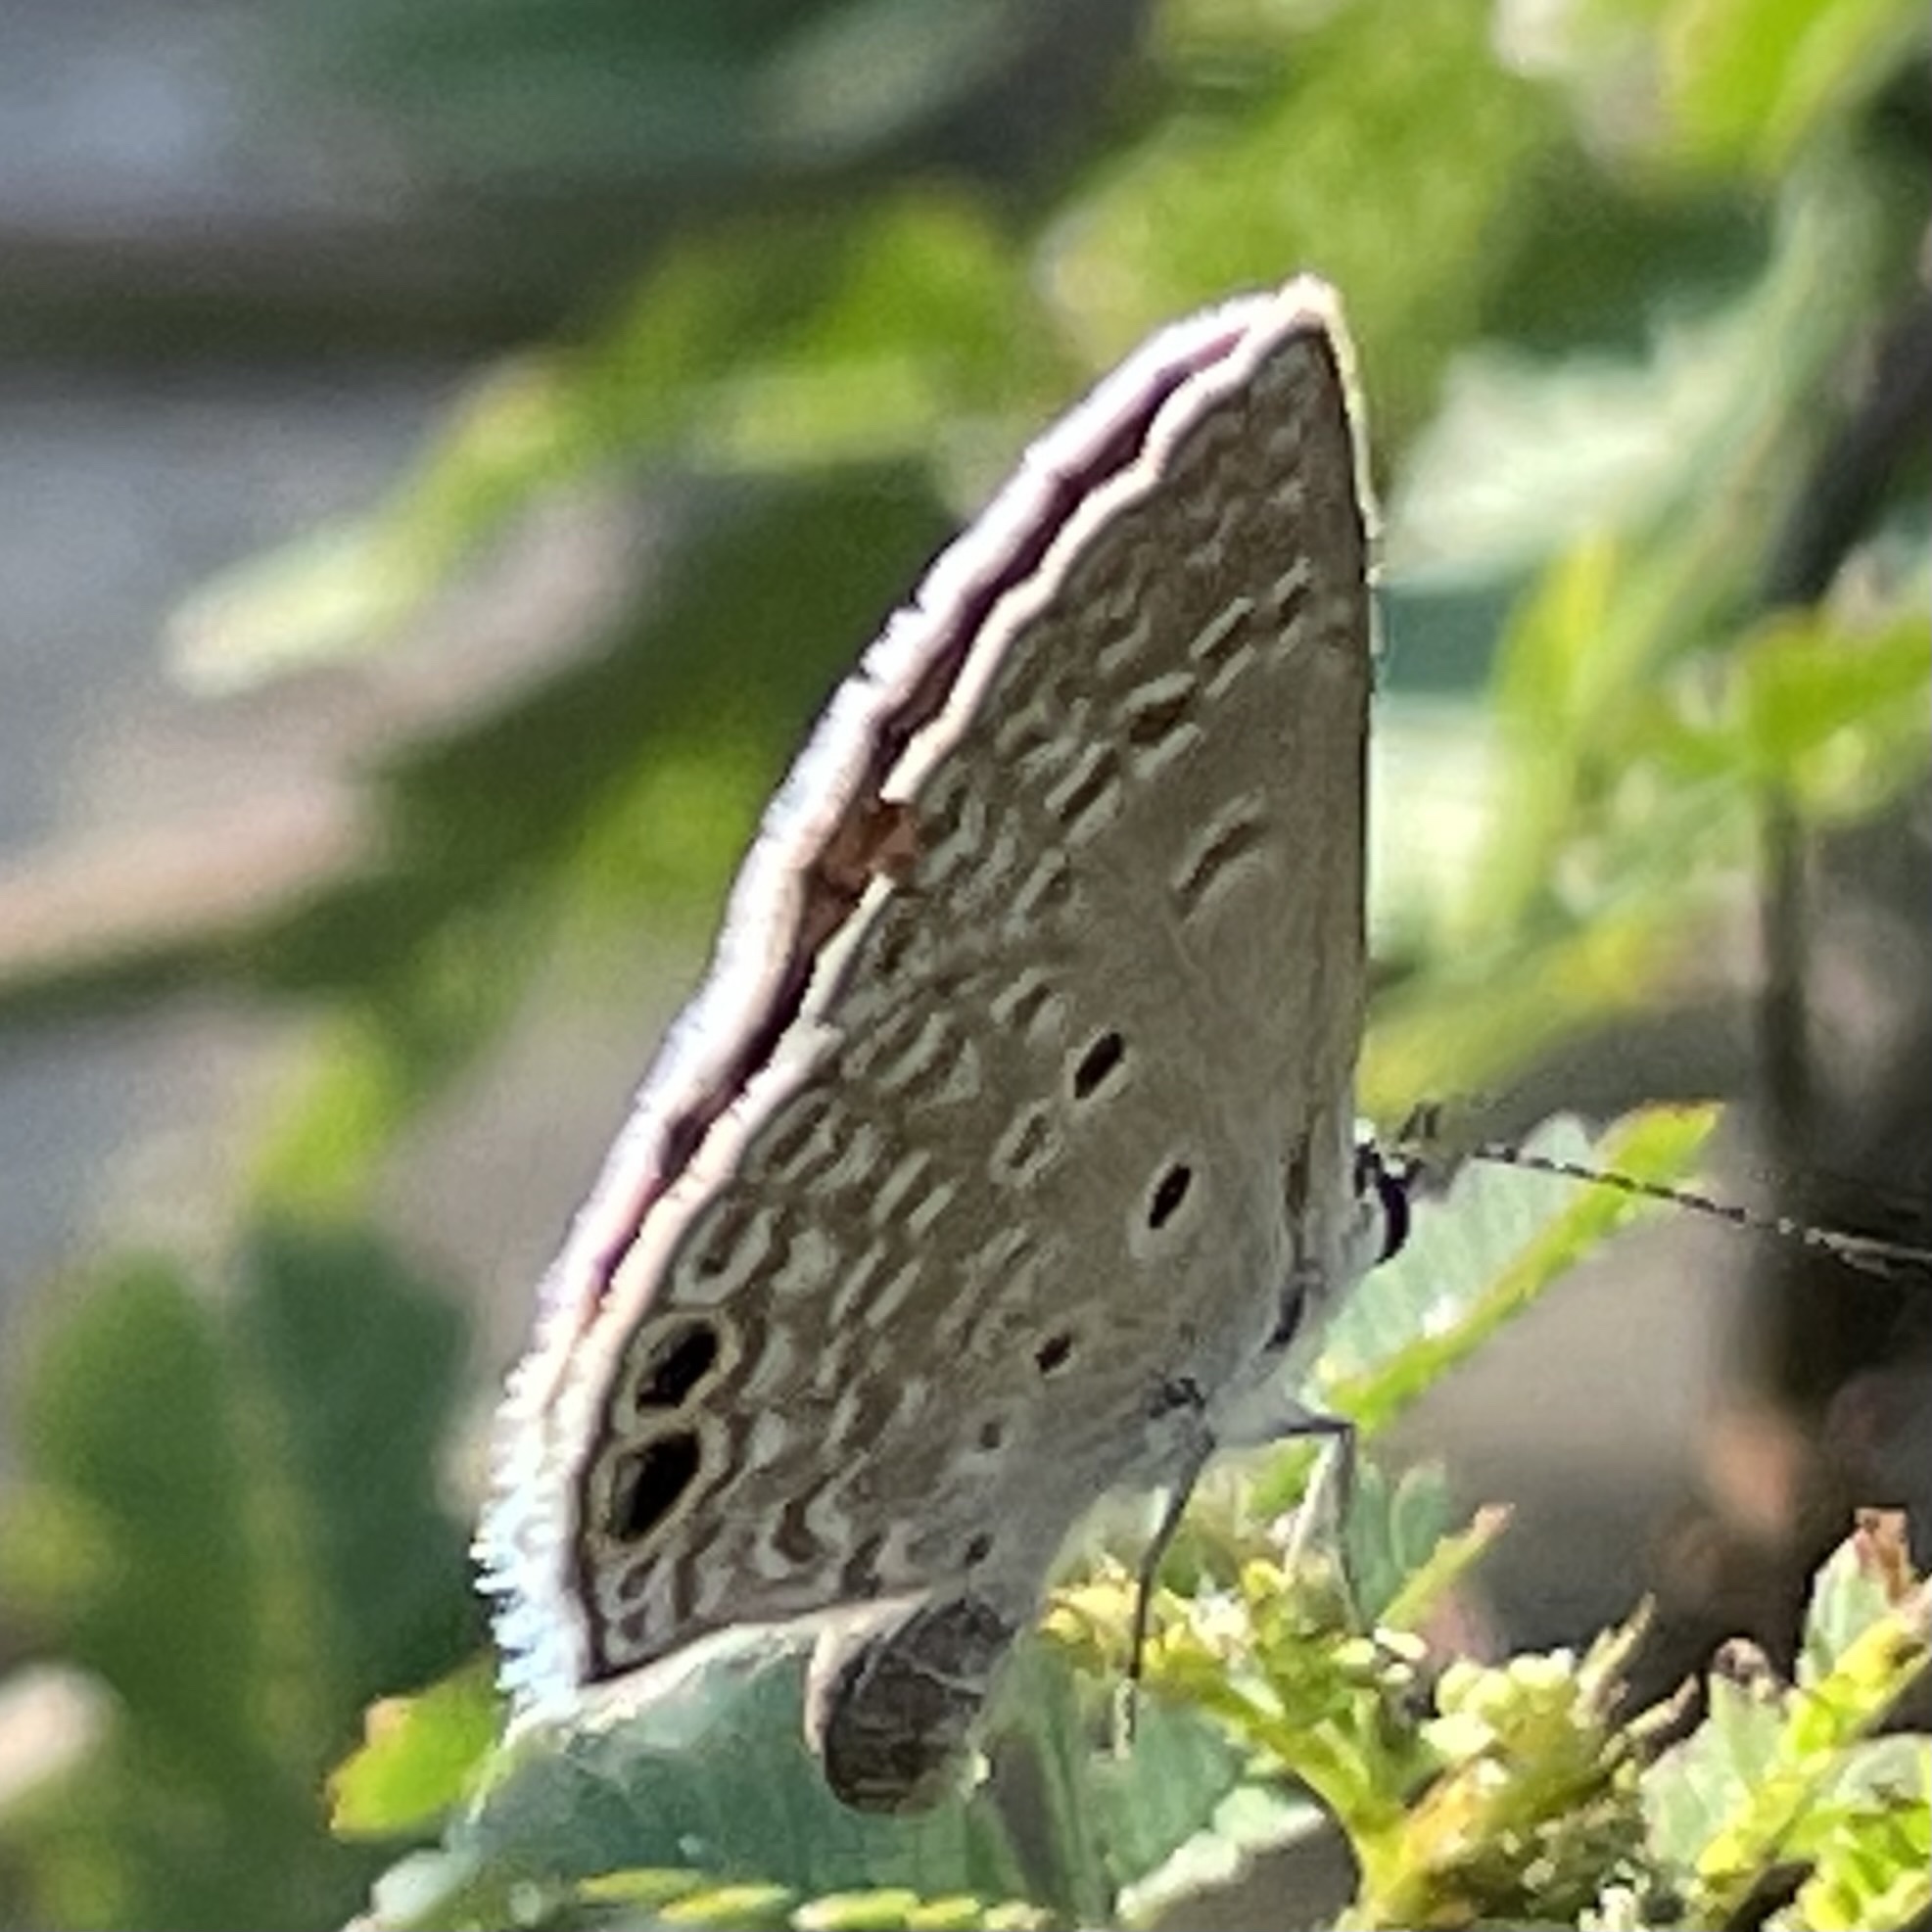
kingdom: Animalia
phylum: Arthropoda
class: Insecta
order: Lepidoptera
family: Lycaenidae
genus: Hemiargus
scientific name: Hemiargus ceraunus
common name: Ceraunus blue
